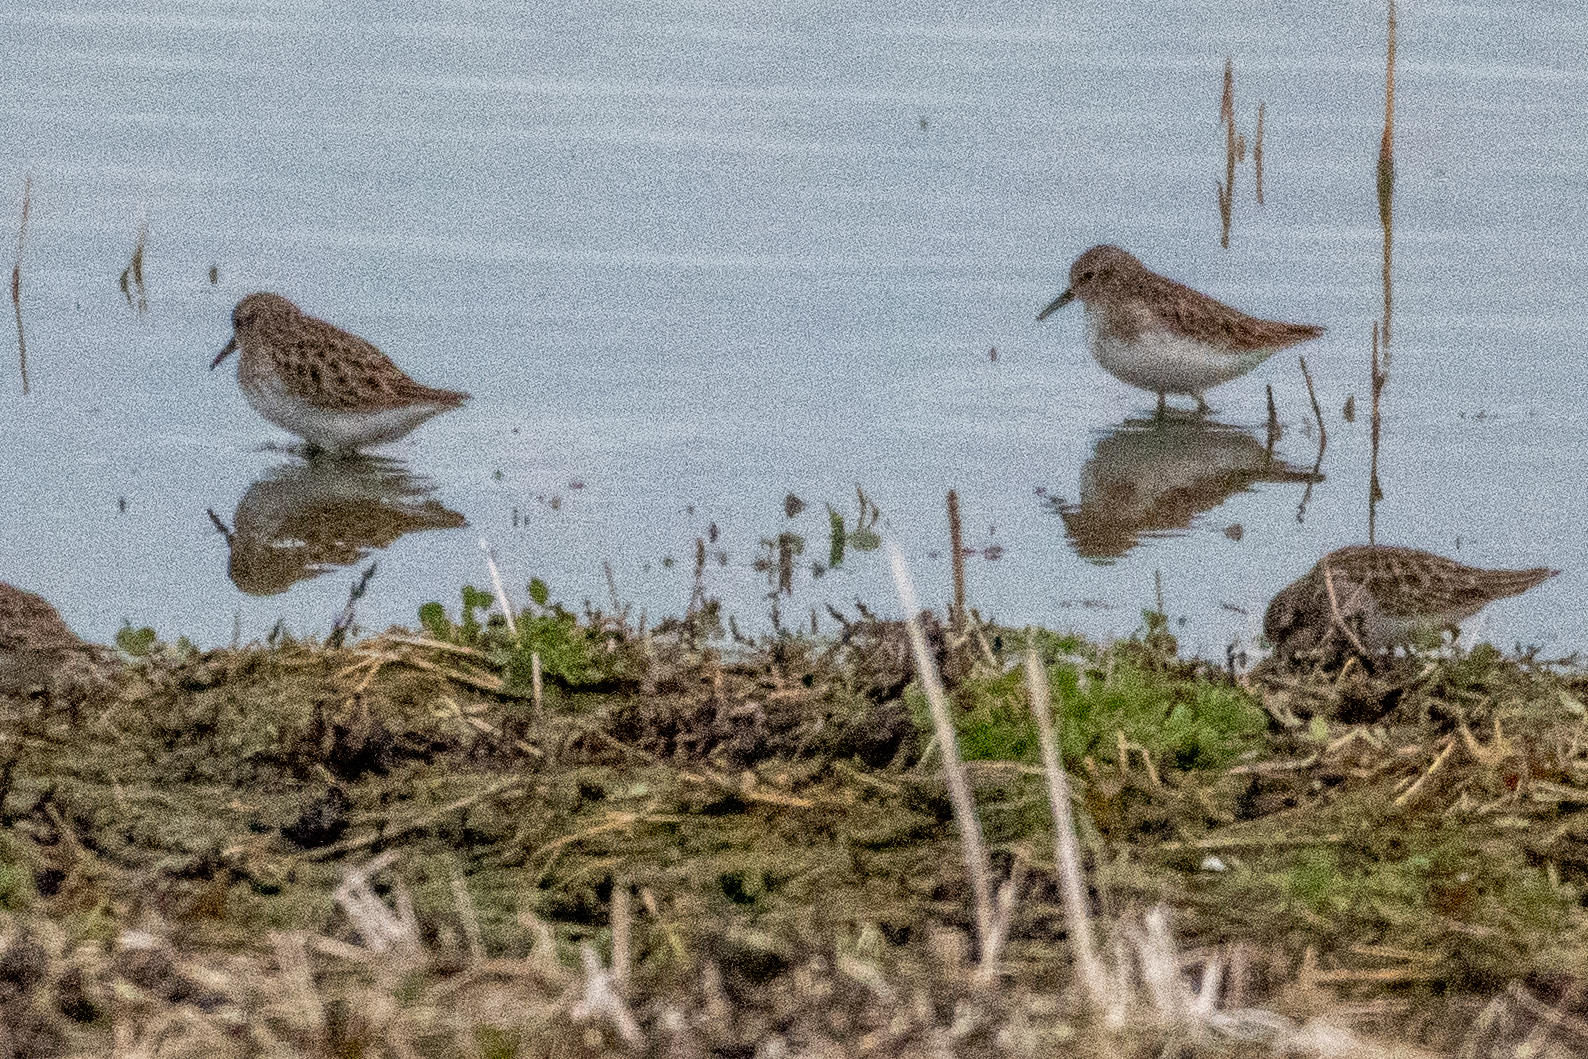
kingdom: Animalia
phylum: Chordata
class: Aves
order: Charadriiformes
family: Scolopacidae
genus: Calidris
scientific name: Calidris minutilla
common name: Least sandpiper
